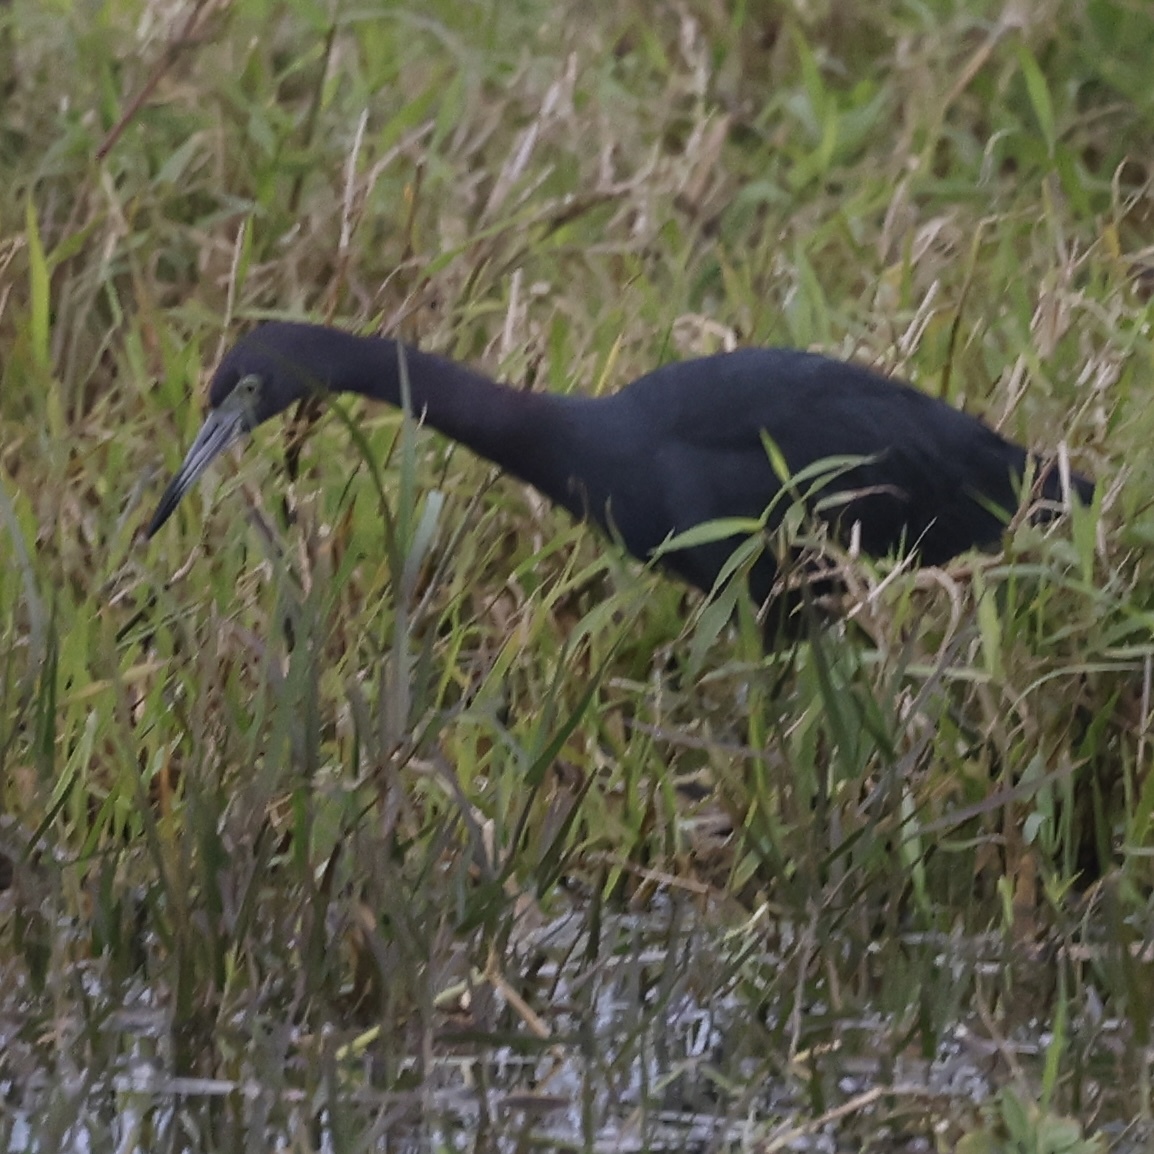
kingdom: Animalia
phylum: Chordata
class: Aves
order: Pelecaniformes
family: Ardeidae
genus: Egretta
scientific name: Egretta caerulea
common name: Little blue heron
